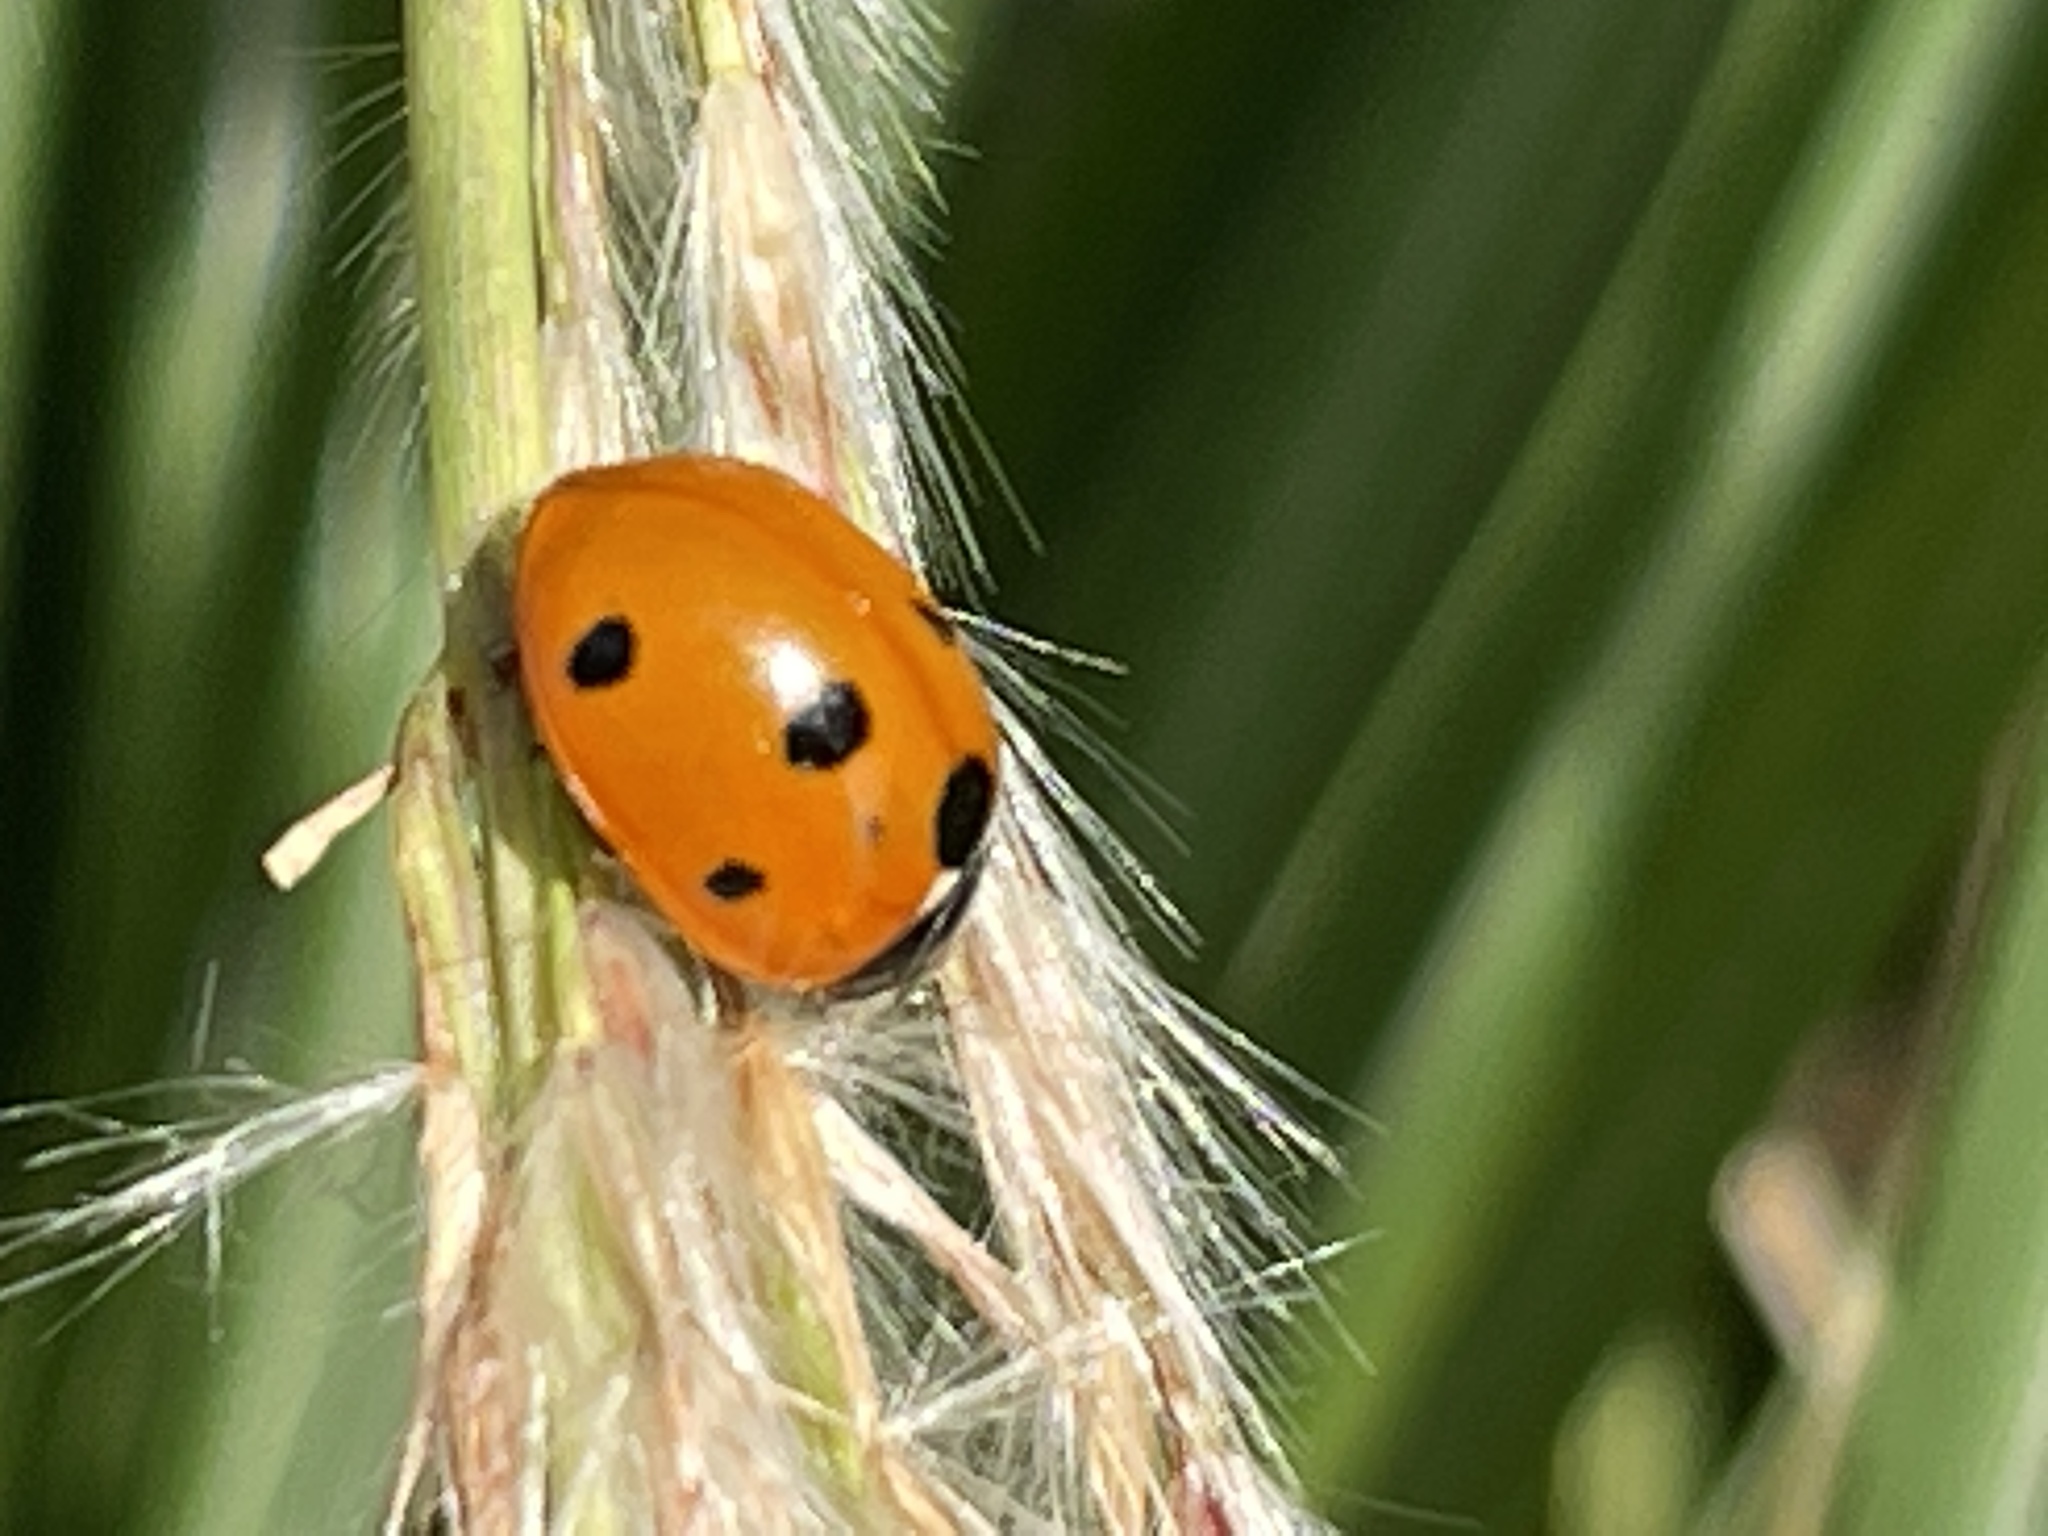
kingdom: Animalia
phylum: Arthropoda
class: Insecta
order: Coleoptera
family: Coccinellidae
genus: Coccinella
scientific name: Coccinella septempunctata
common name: Sevenspotted lady beetle
